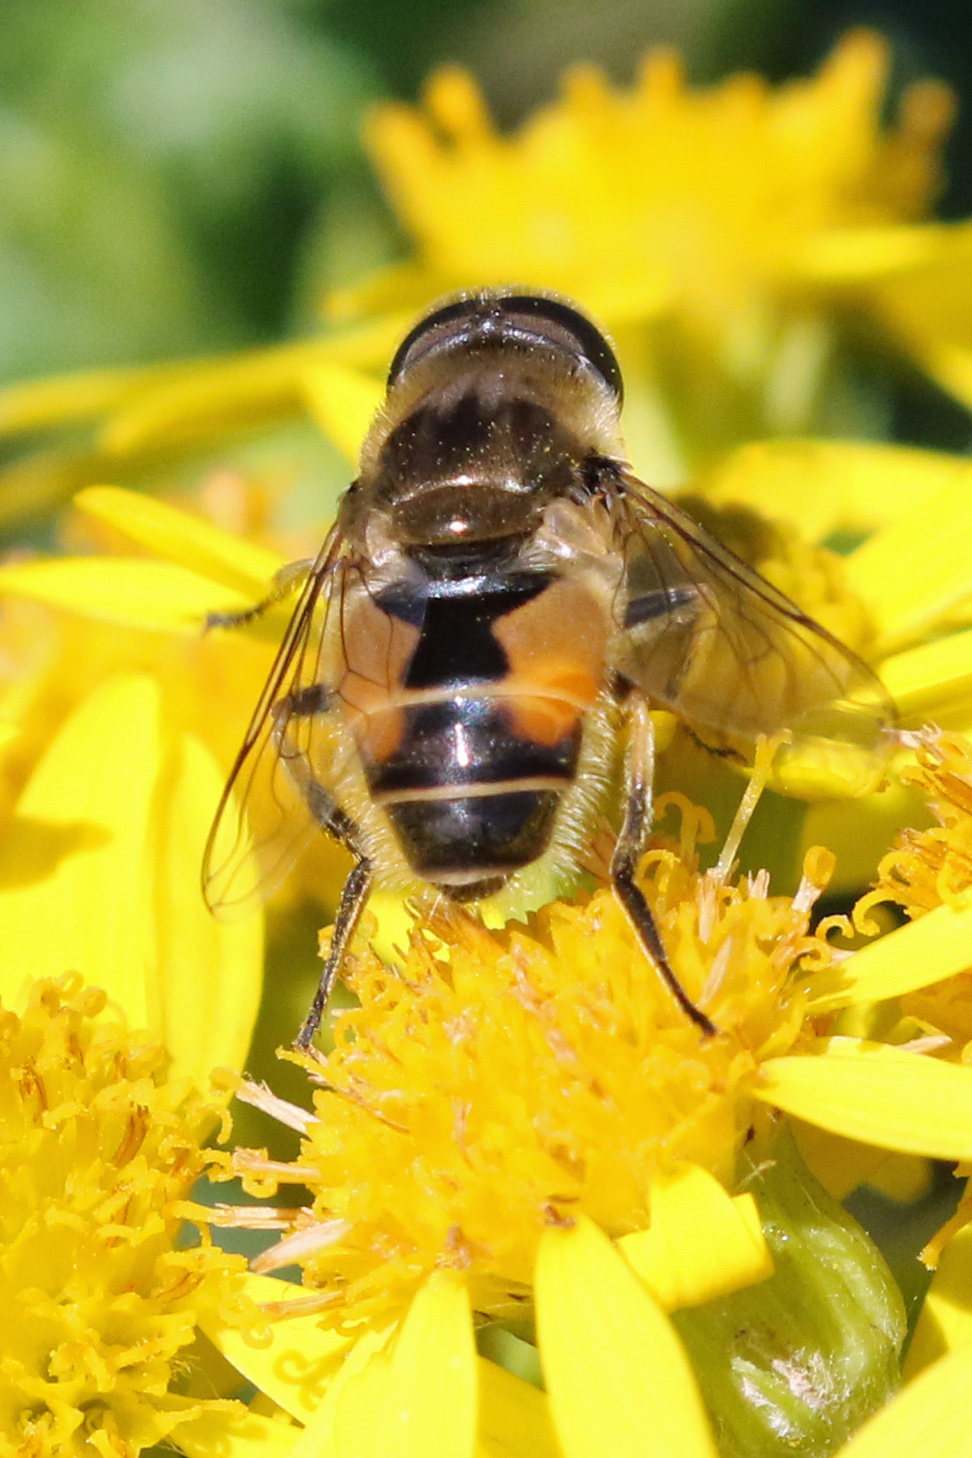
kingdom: Animalia
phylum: Arthropoda
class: Insecta
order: Diptera
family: Syrphidae
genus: Eristalis
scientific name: Eristalis arbustorum
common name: Hover fly
